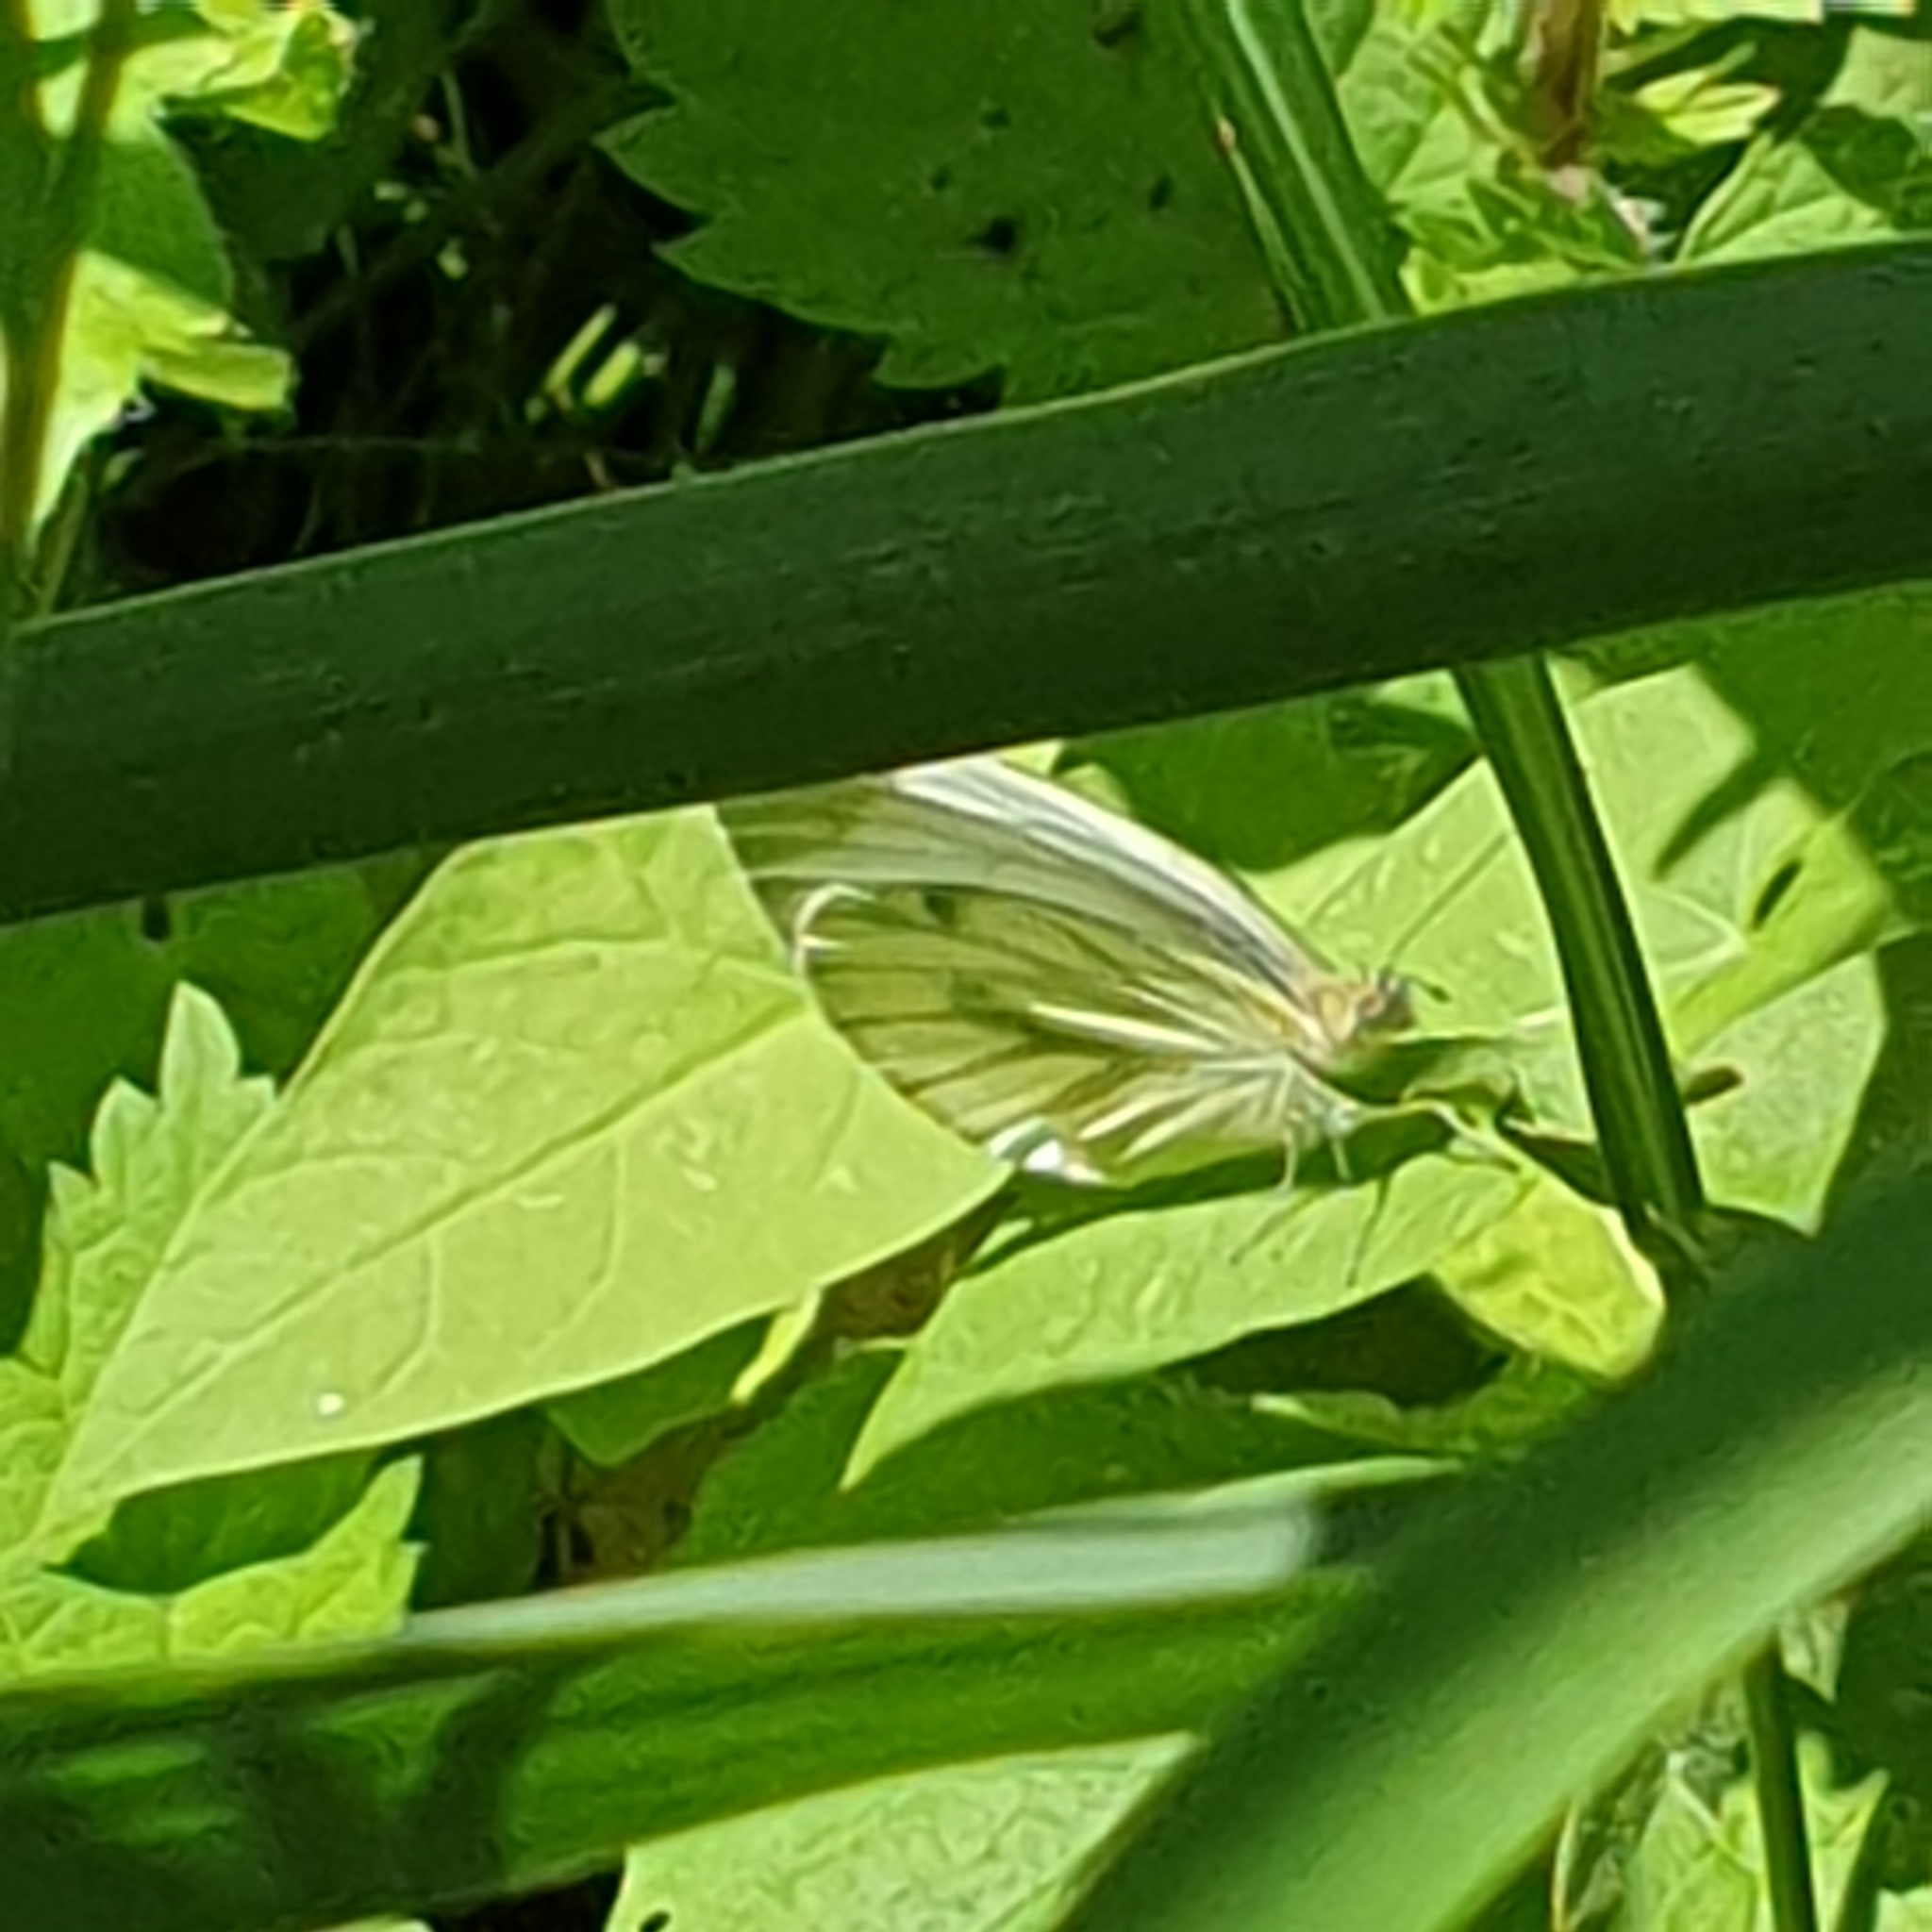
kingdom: Animalia
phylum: Arthropoda
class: Insecta
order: Lepidoptera
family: Pieridae
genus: Pieris
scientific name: Pieris napi
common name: Green-veined white
